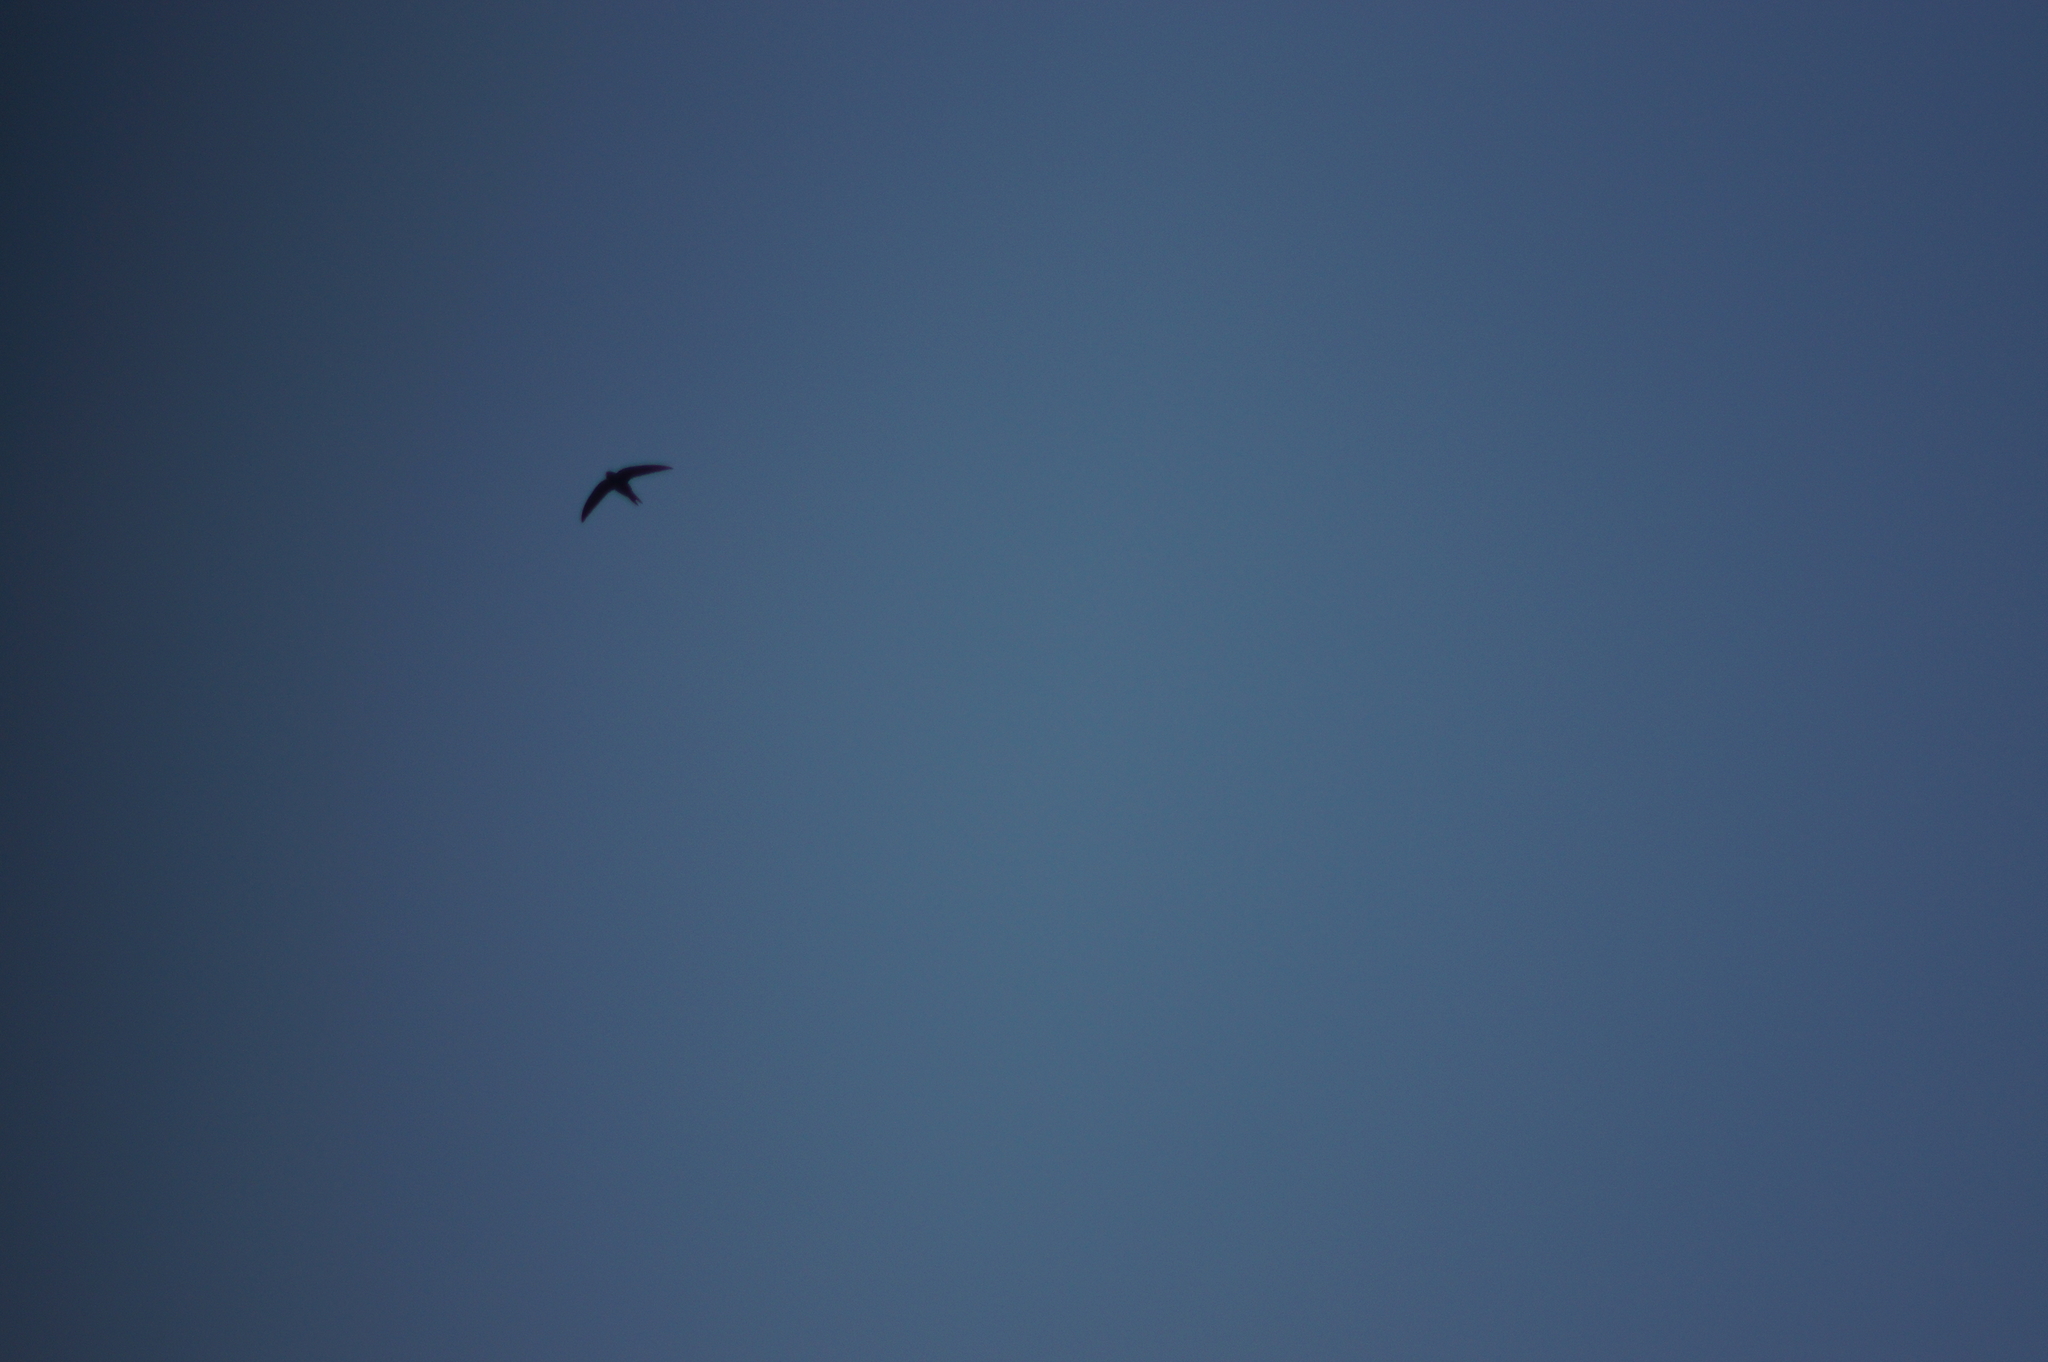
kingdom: Animalia
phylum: Chordata
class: Aves
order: Apodiformes
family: Apodidae
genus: Apus
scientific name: Apus apus
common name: Common swift
